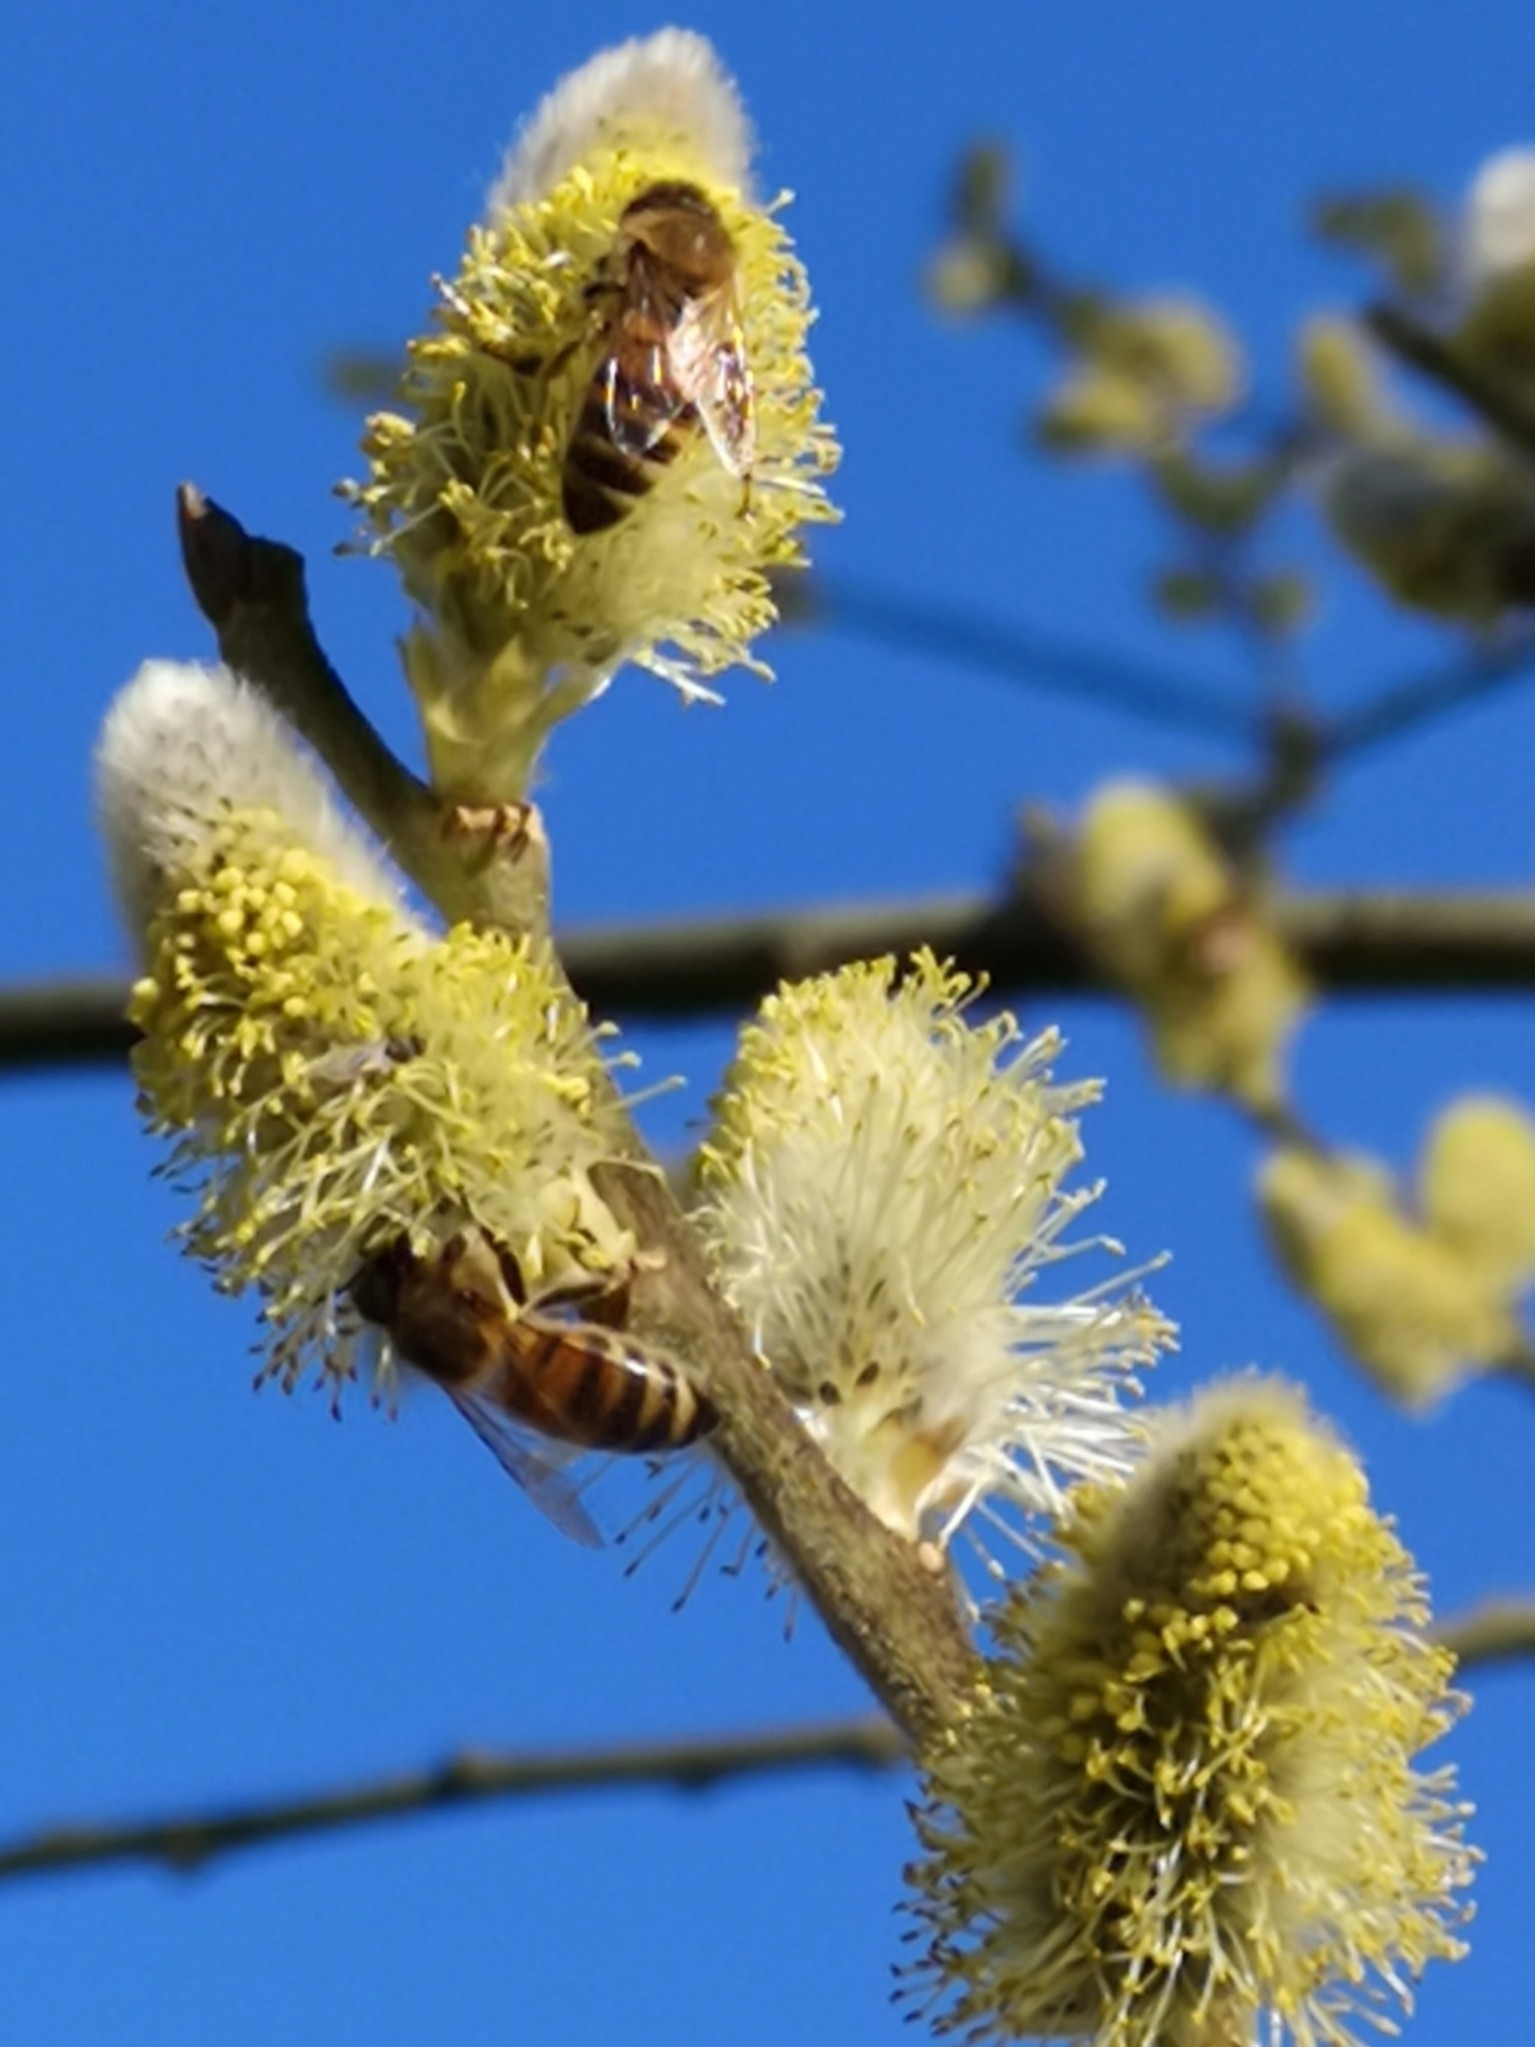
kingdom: Animalia
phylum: Arthropoda
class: Insecta
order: Hymenoptera
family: Apidae
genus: Apis
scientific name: Apis mellifera
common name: Honey bee
